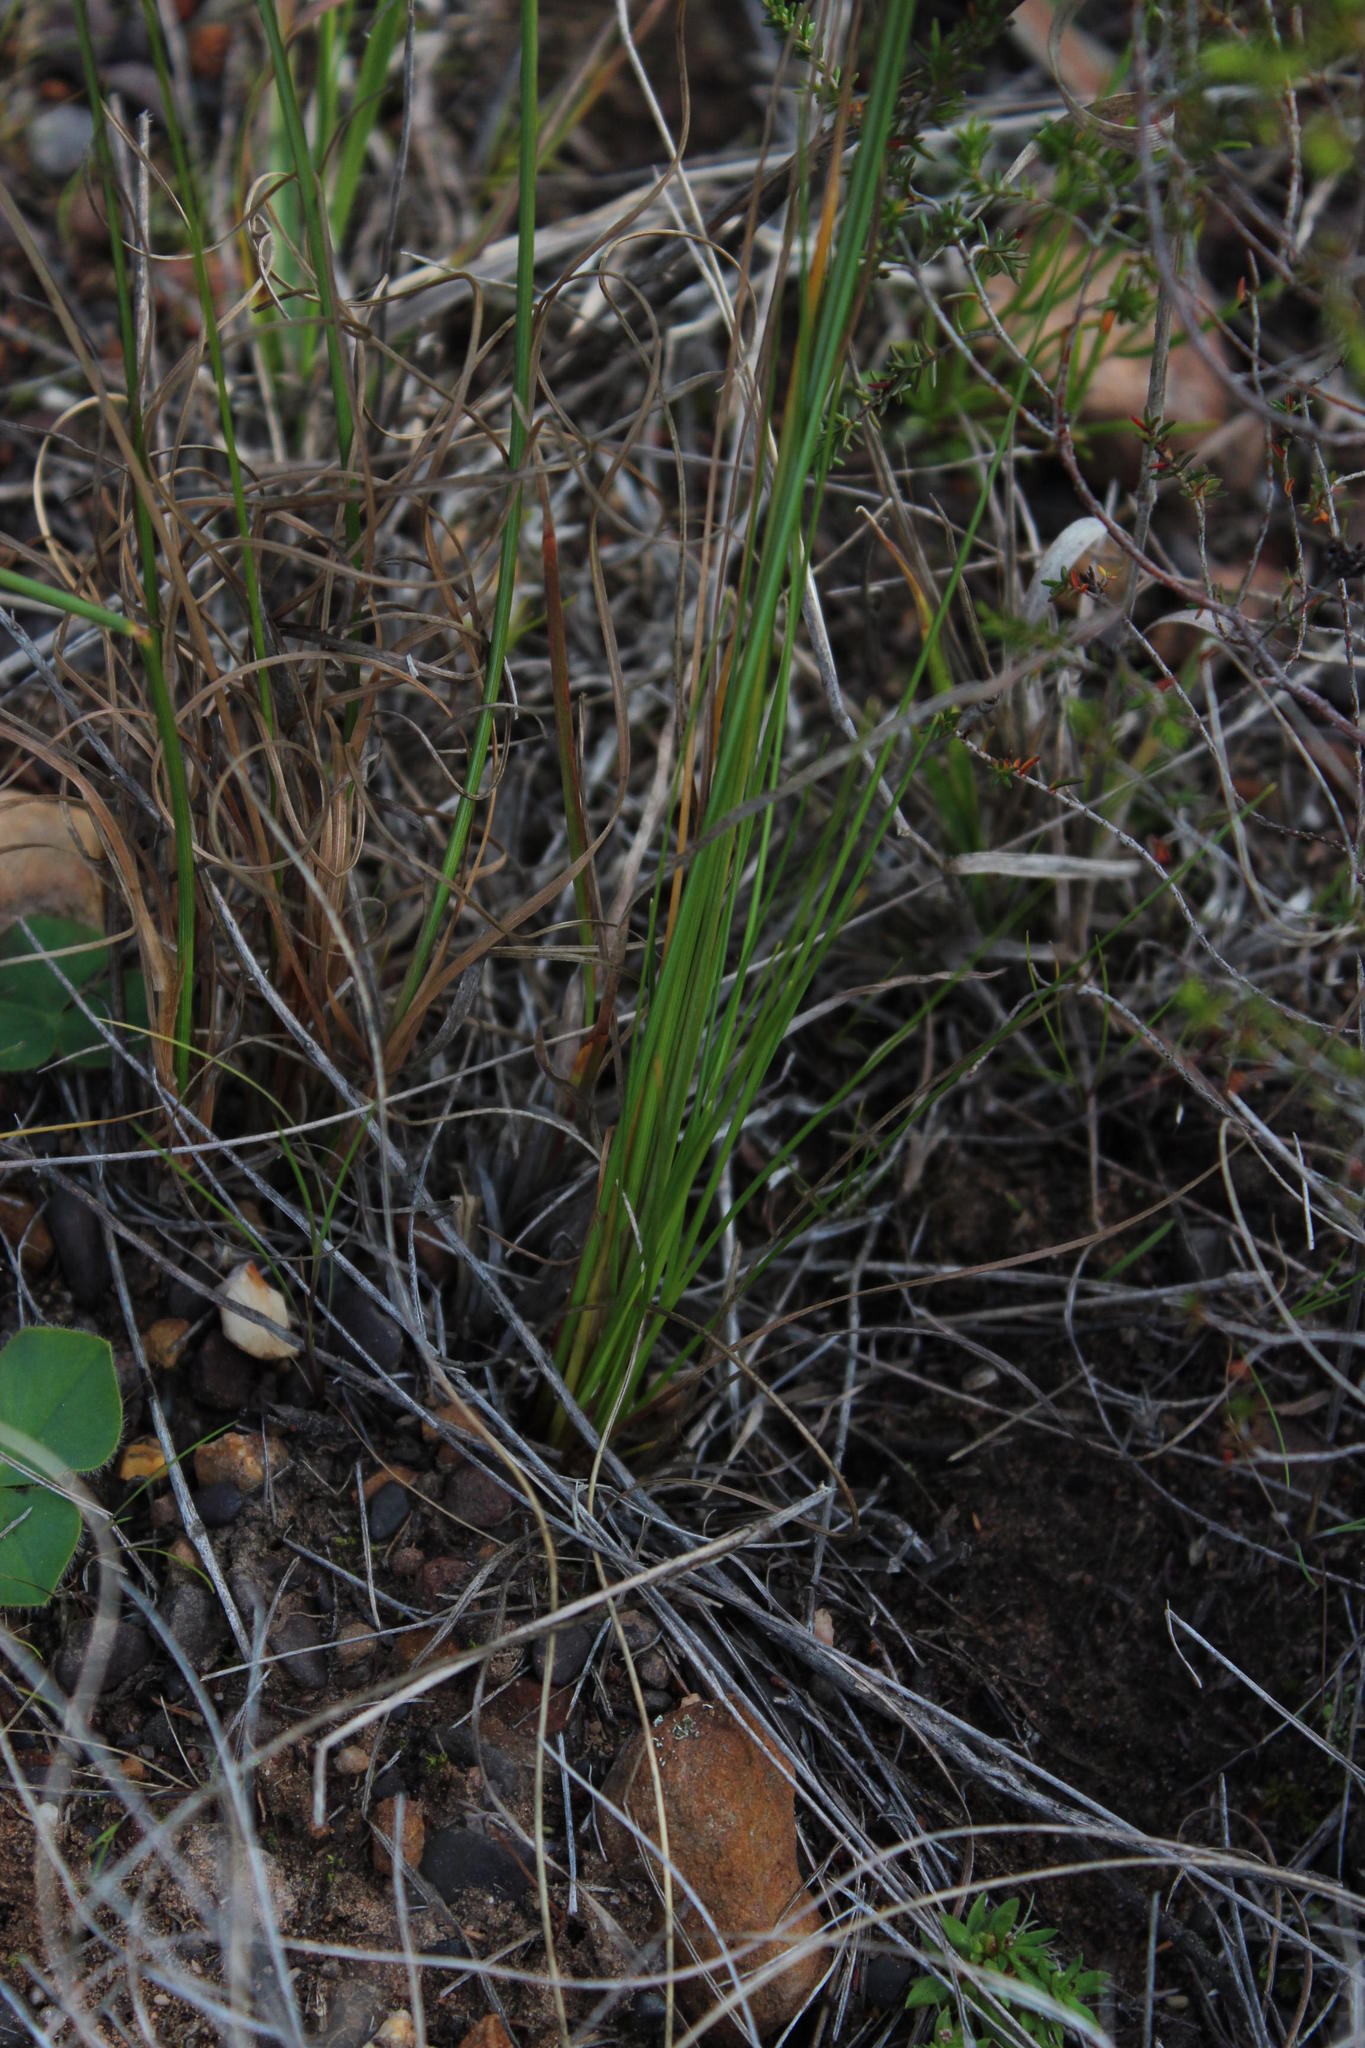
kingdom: Plantae
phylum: Tracheophyta
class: Liliopsida
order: Poales
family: Cyperaceae
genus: Ficinia
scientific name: Ficinia nigrescens
